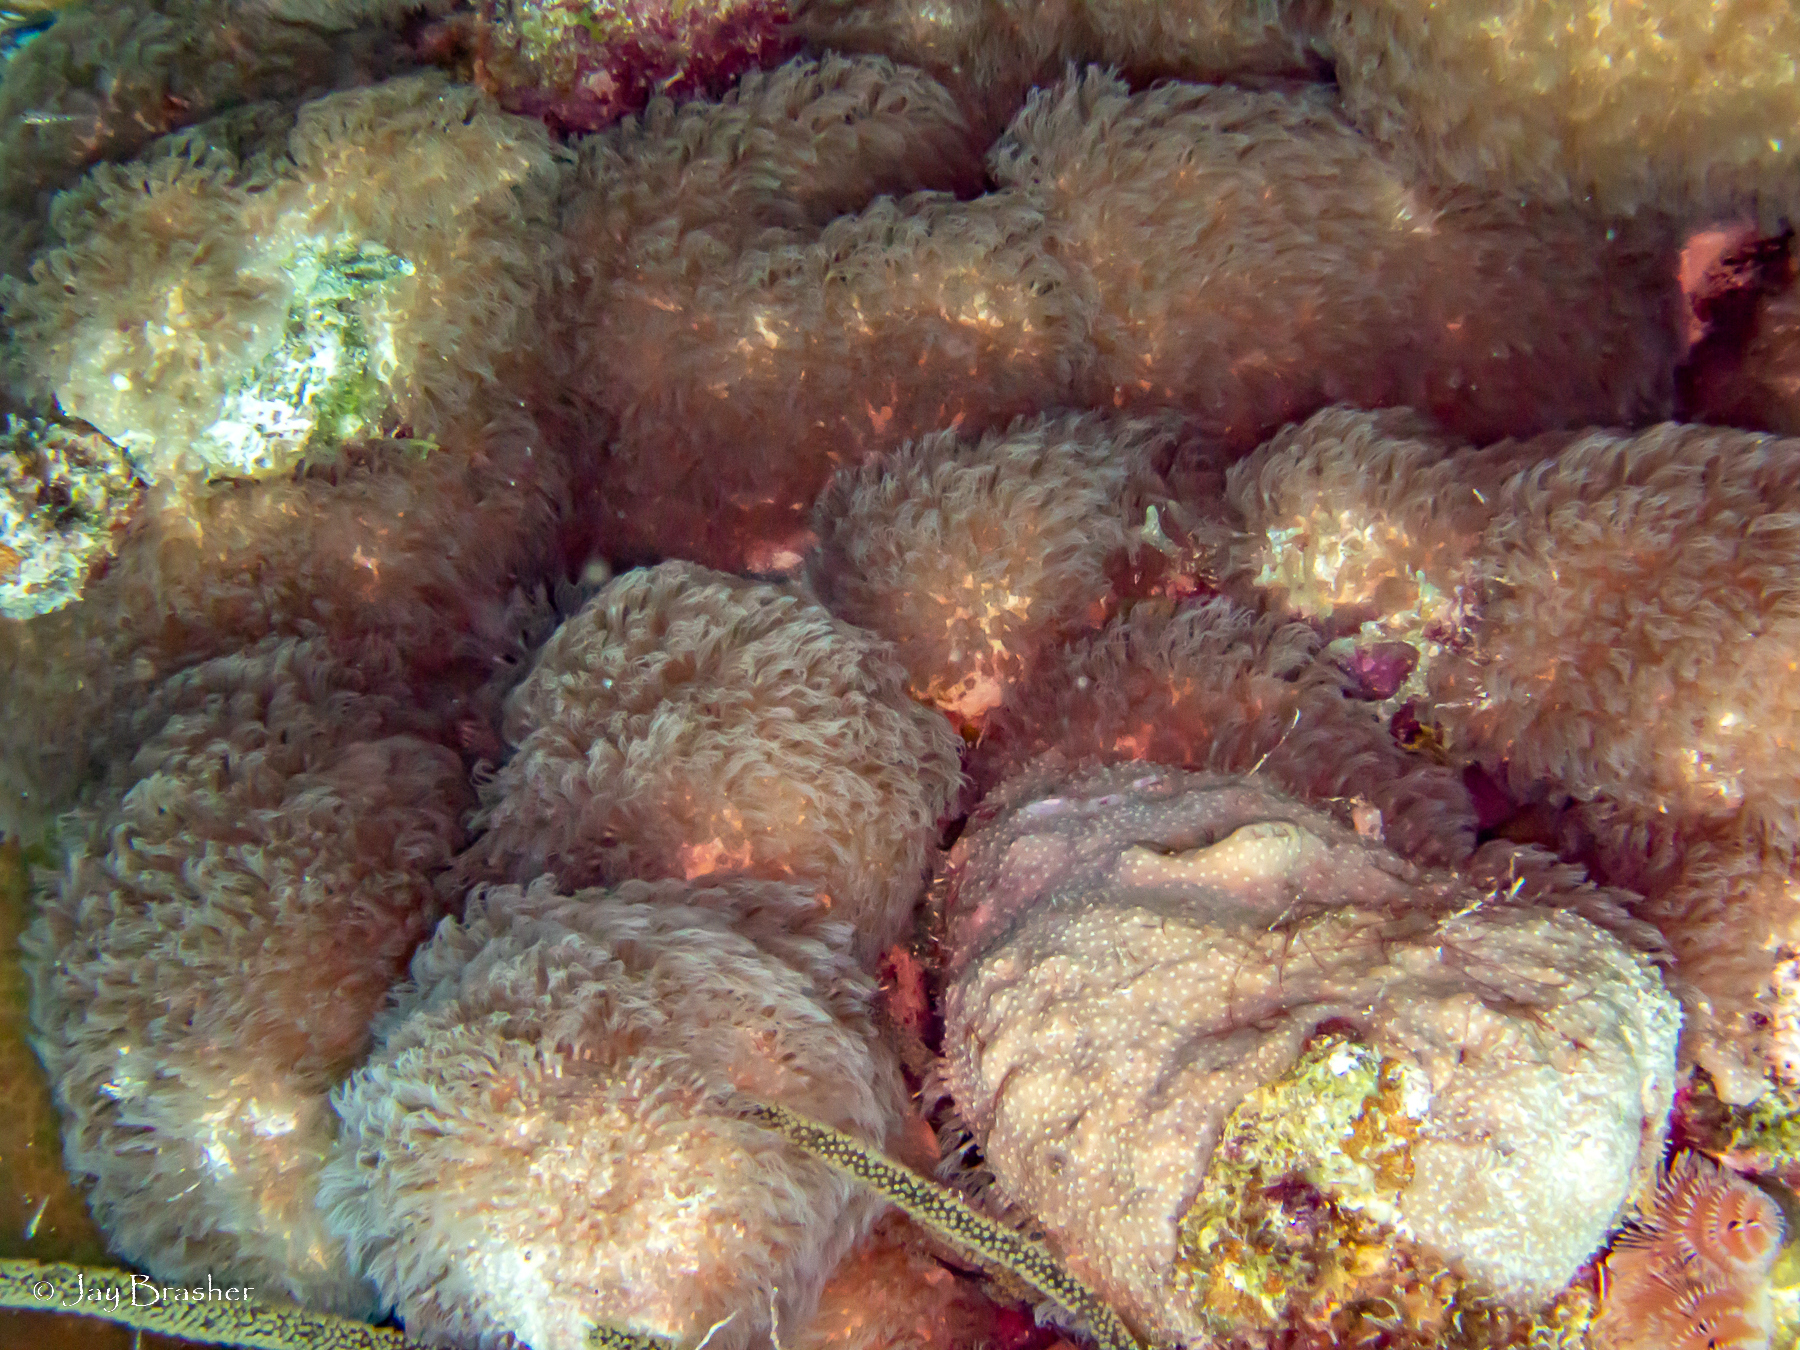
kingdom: Animalia
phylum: Cnidaria
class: Anthozoa
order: Scleralcyonacea
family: Erythropodiidae
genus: Erythropodium
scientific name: Erythropodium caribaeorum
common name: Encrusting gorgonian
